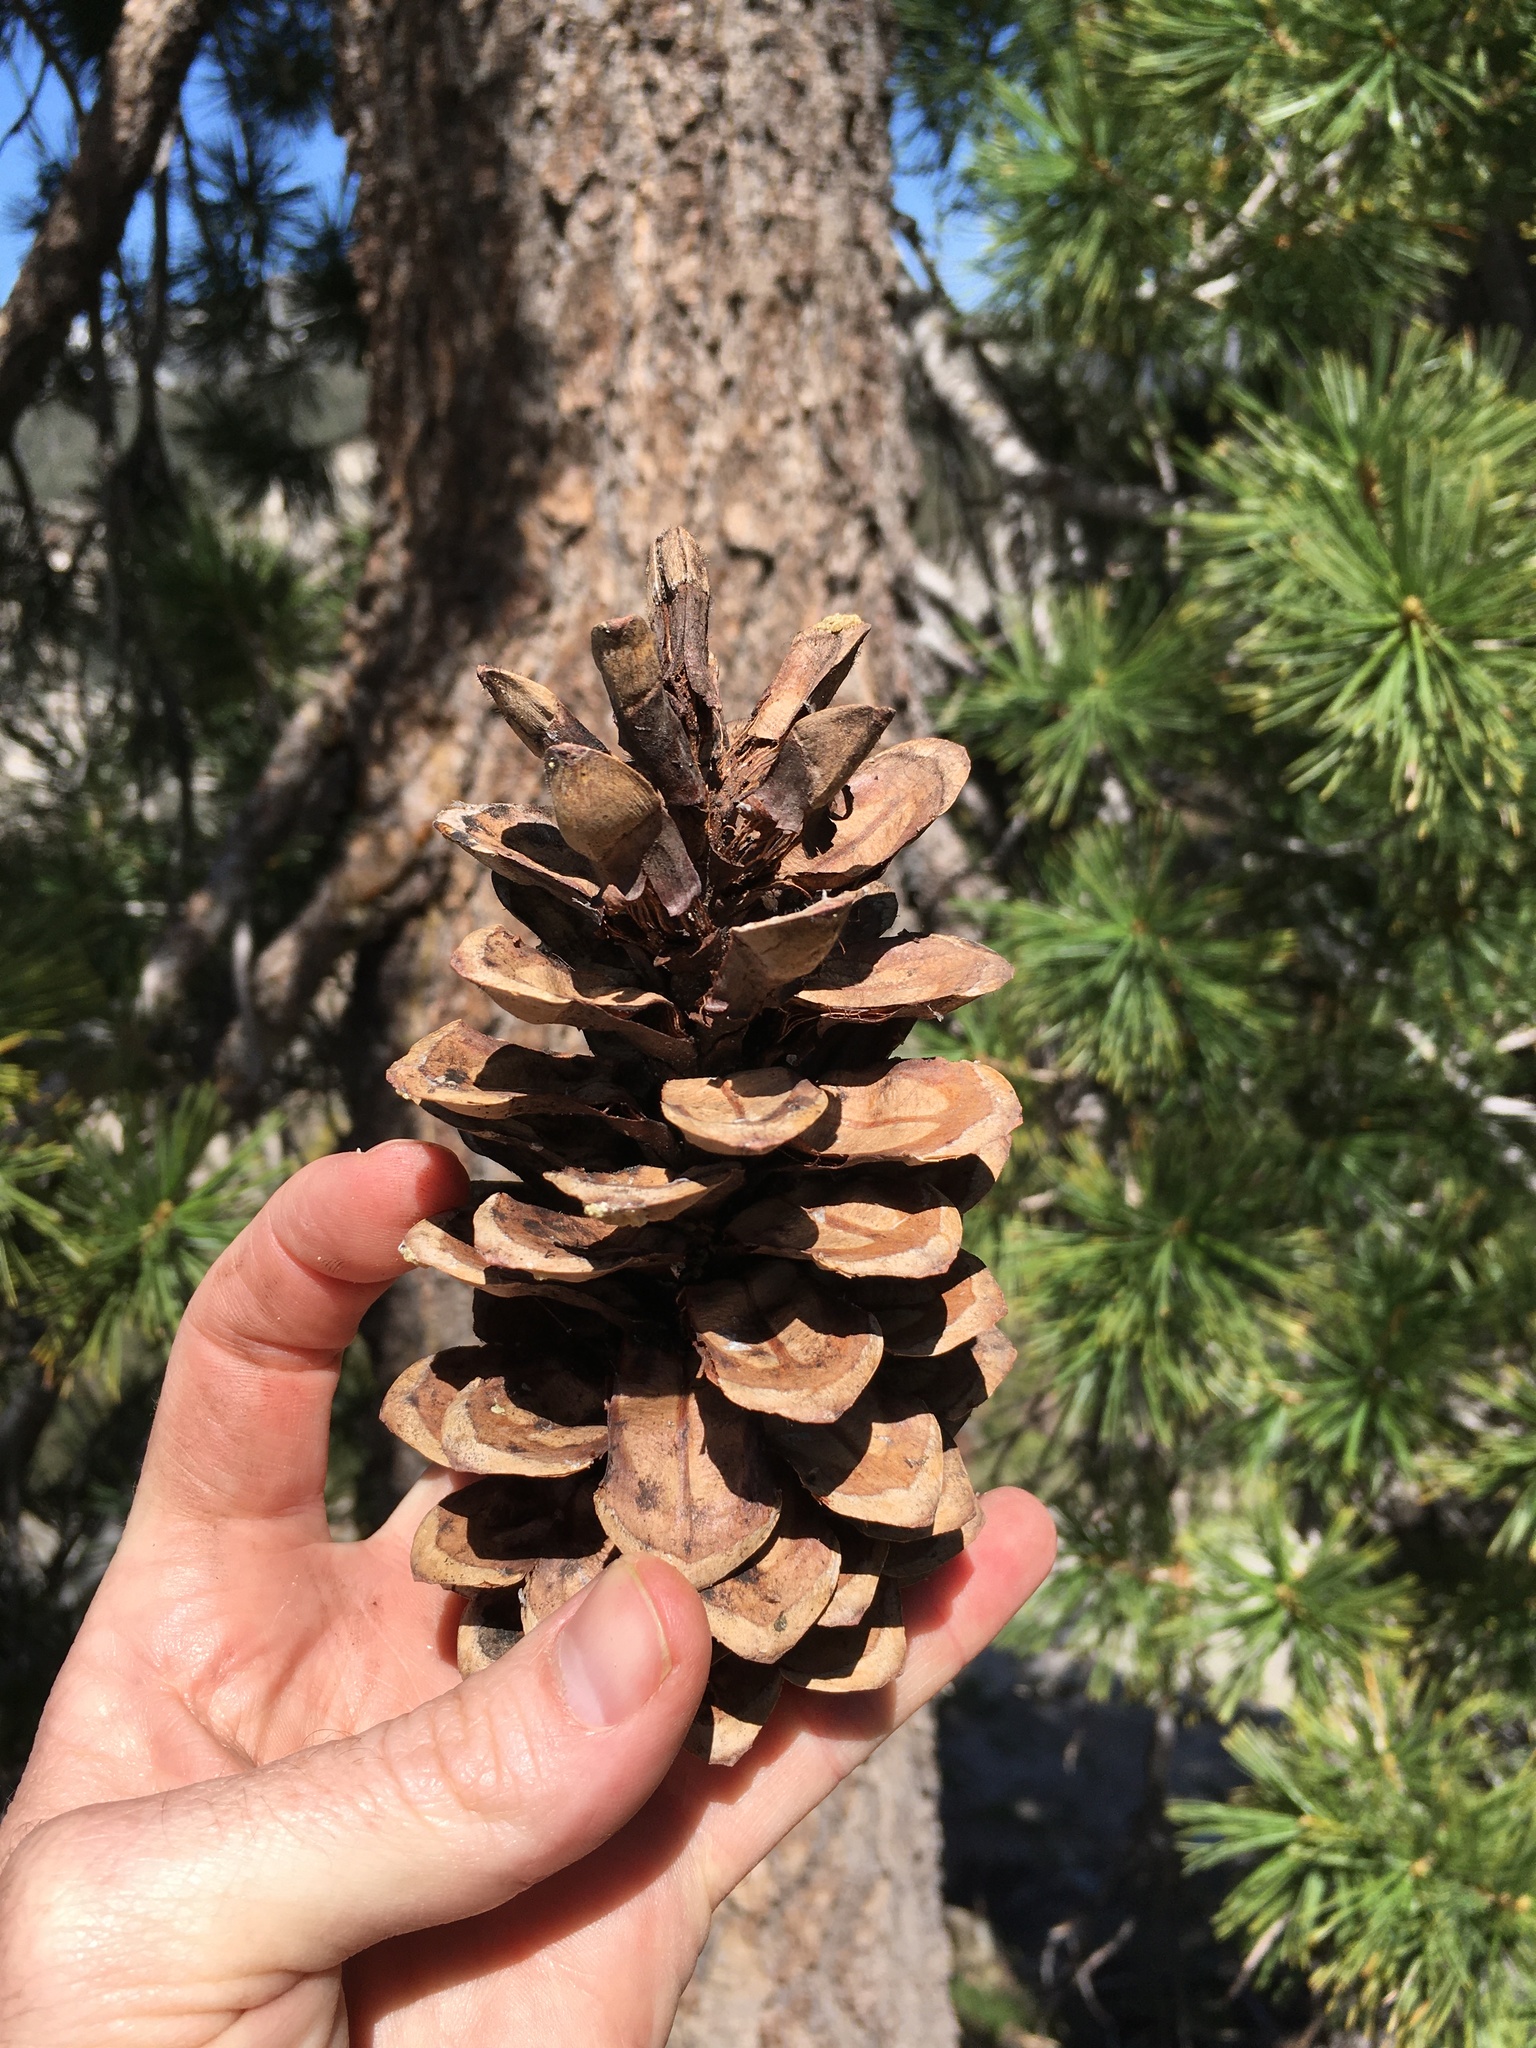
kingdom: Plantae
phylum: Tracheophyta
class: Pinopsida
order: Pinales
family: Pinaceae
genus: Pinus
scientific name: Pinus monticola
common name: Western white pine
